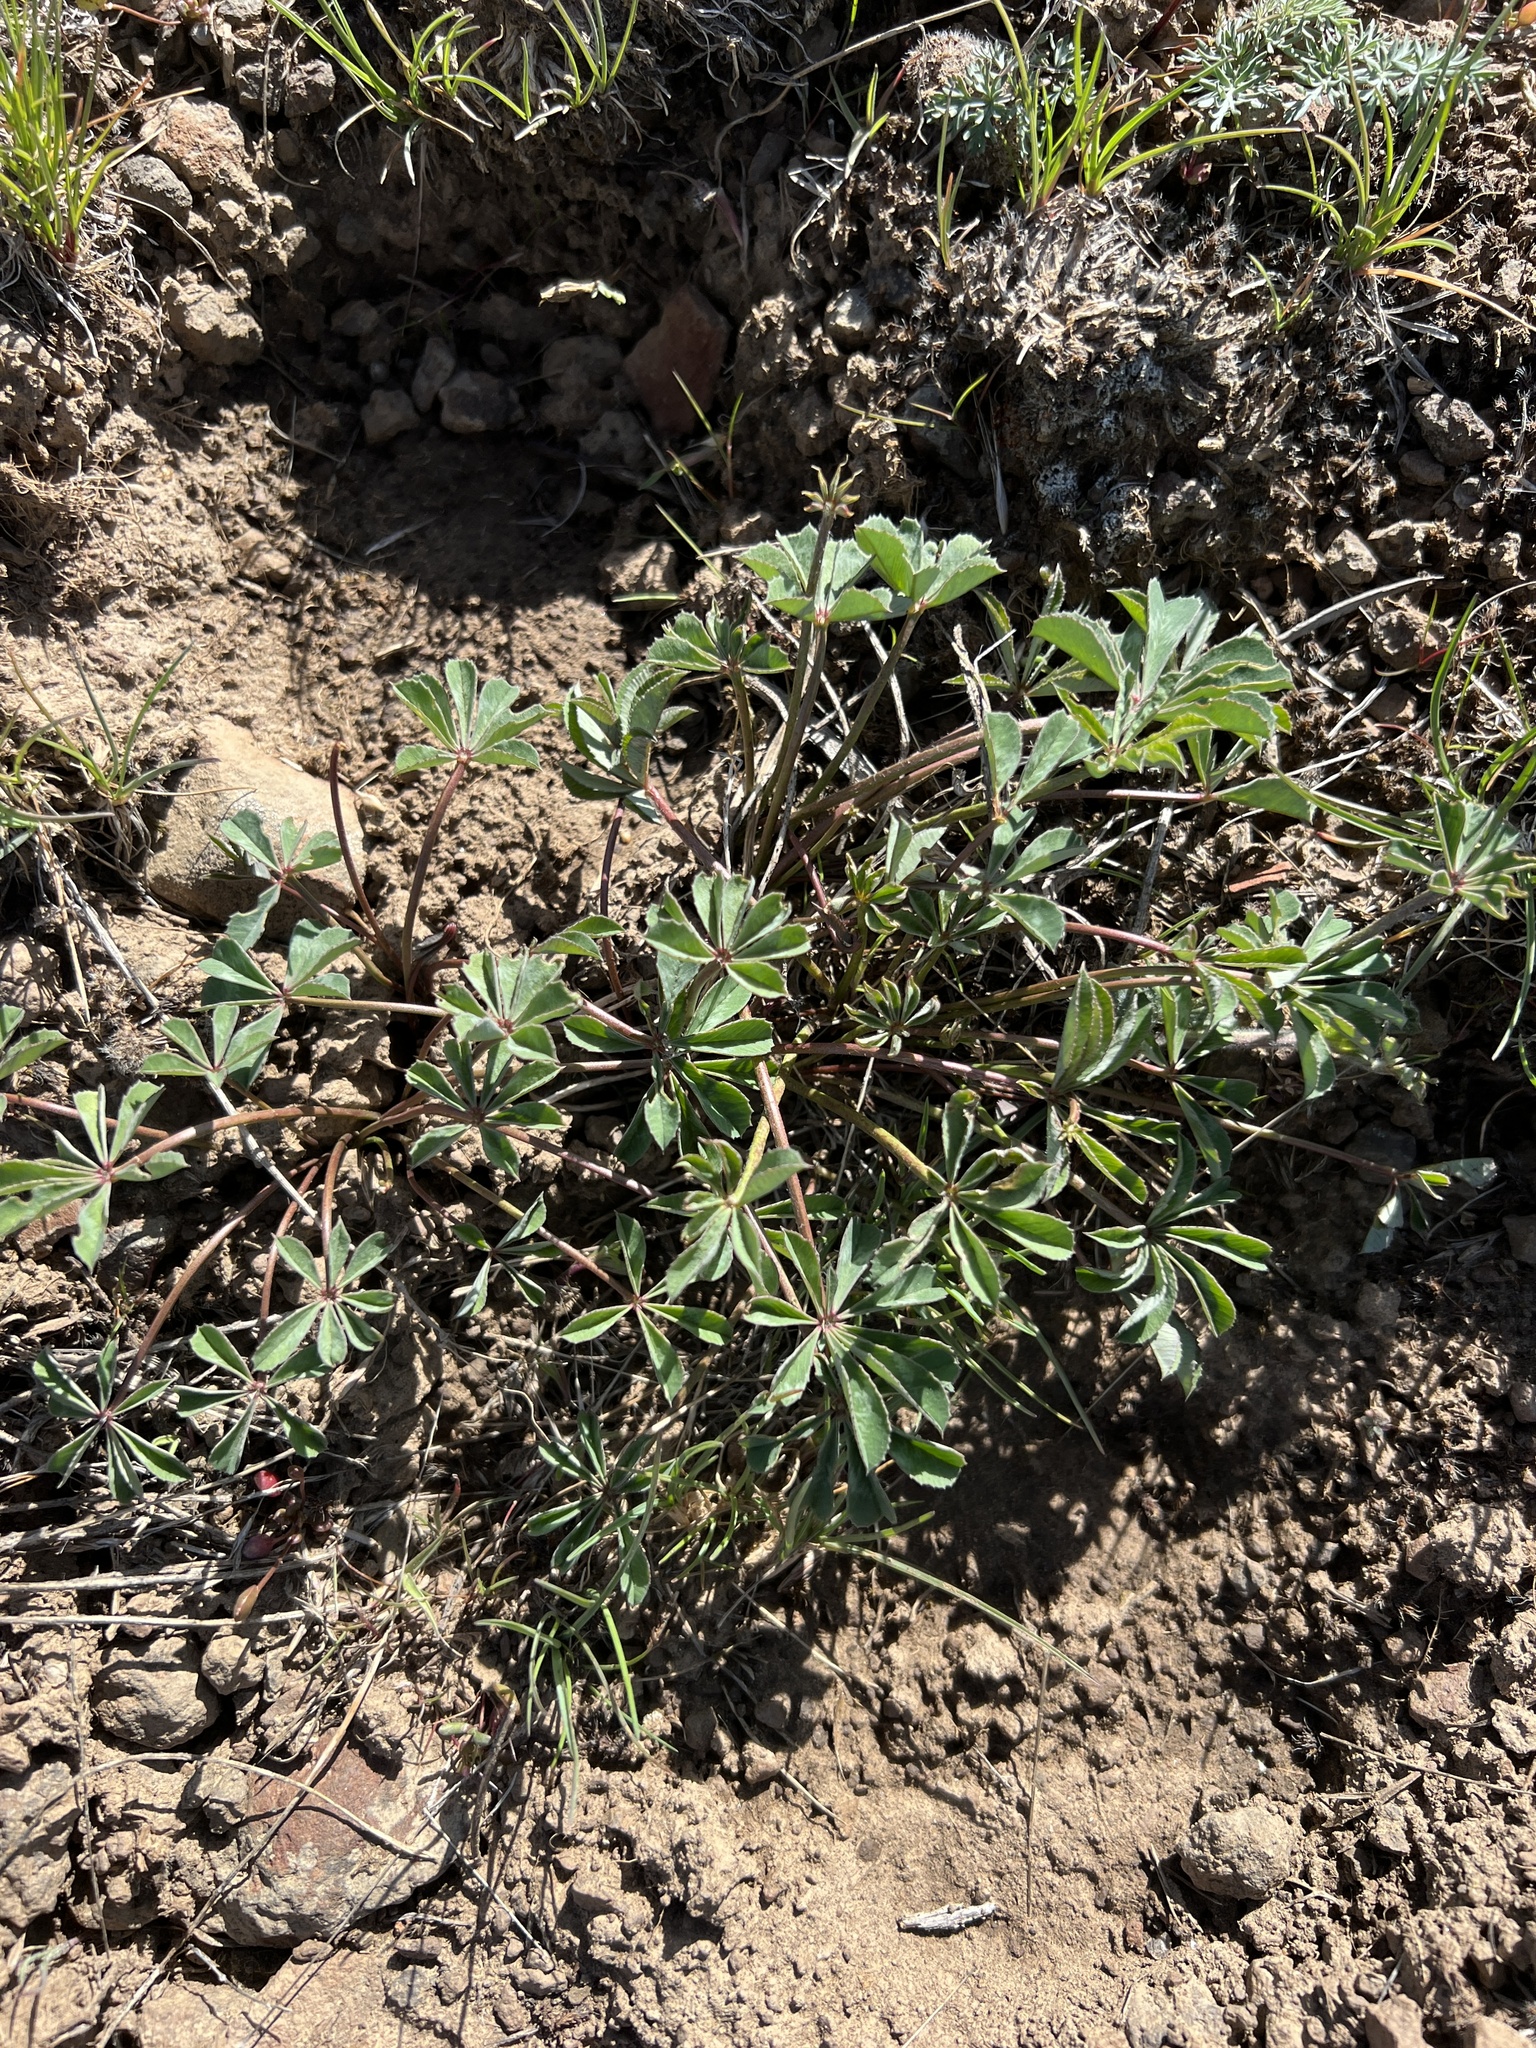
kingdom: Plantae
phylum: Tracheophyta
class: Magnoliopsida
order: Fabales
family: Fabaceae
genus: Trifolium
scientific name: Trifolium macrocephalum
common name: Large-head clover
